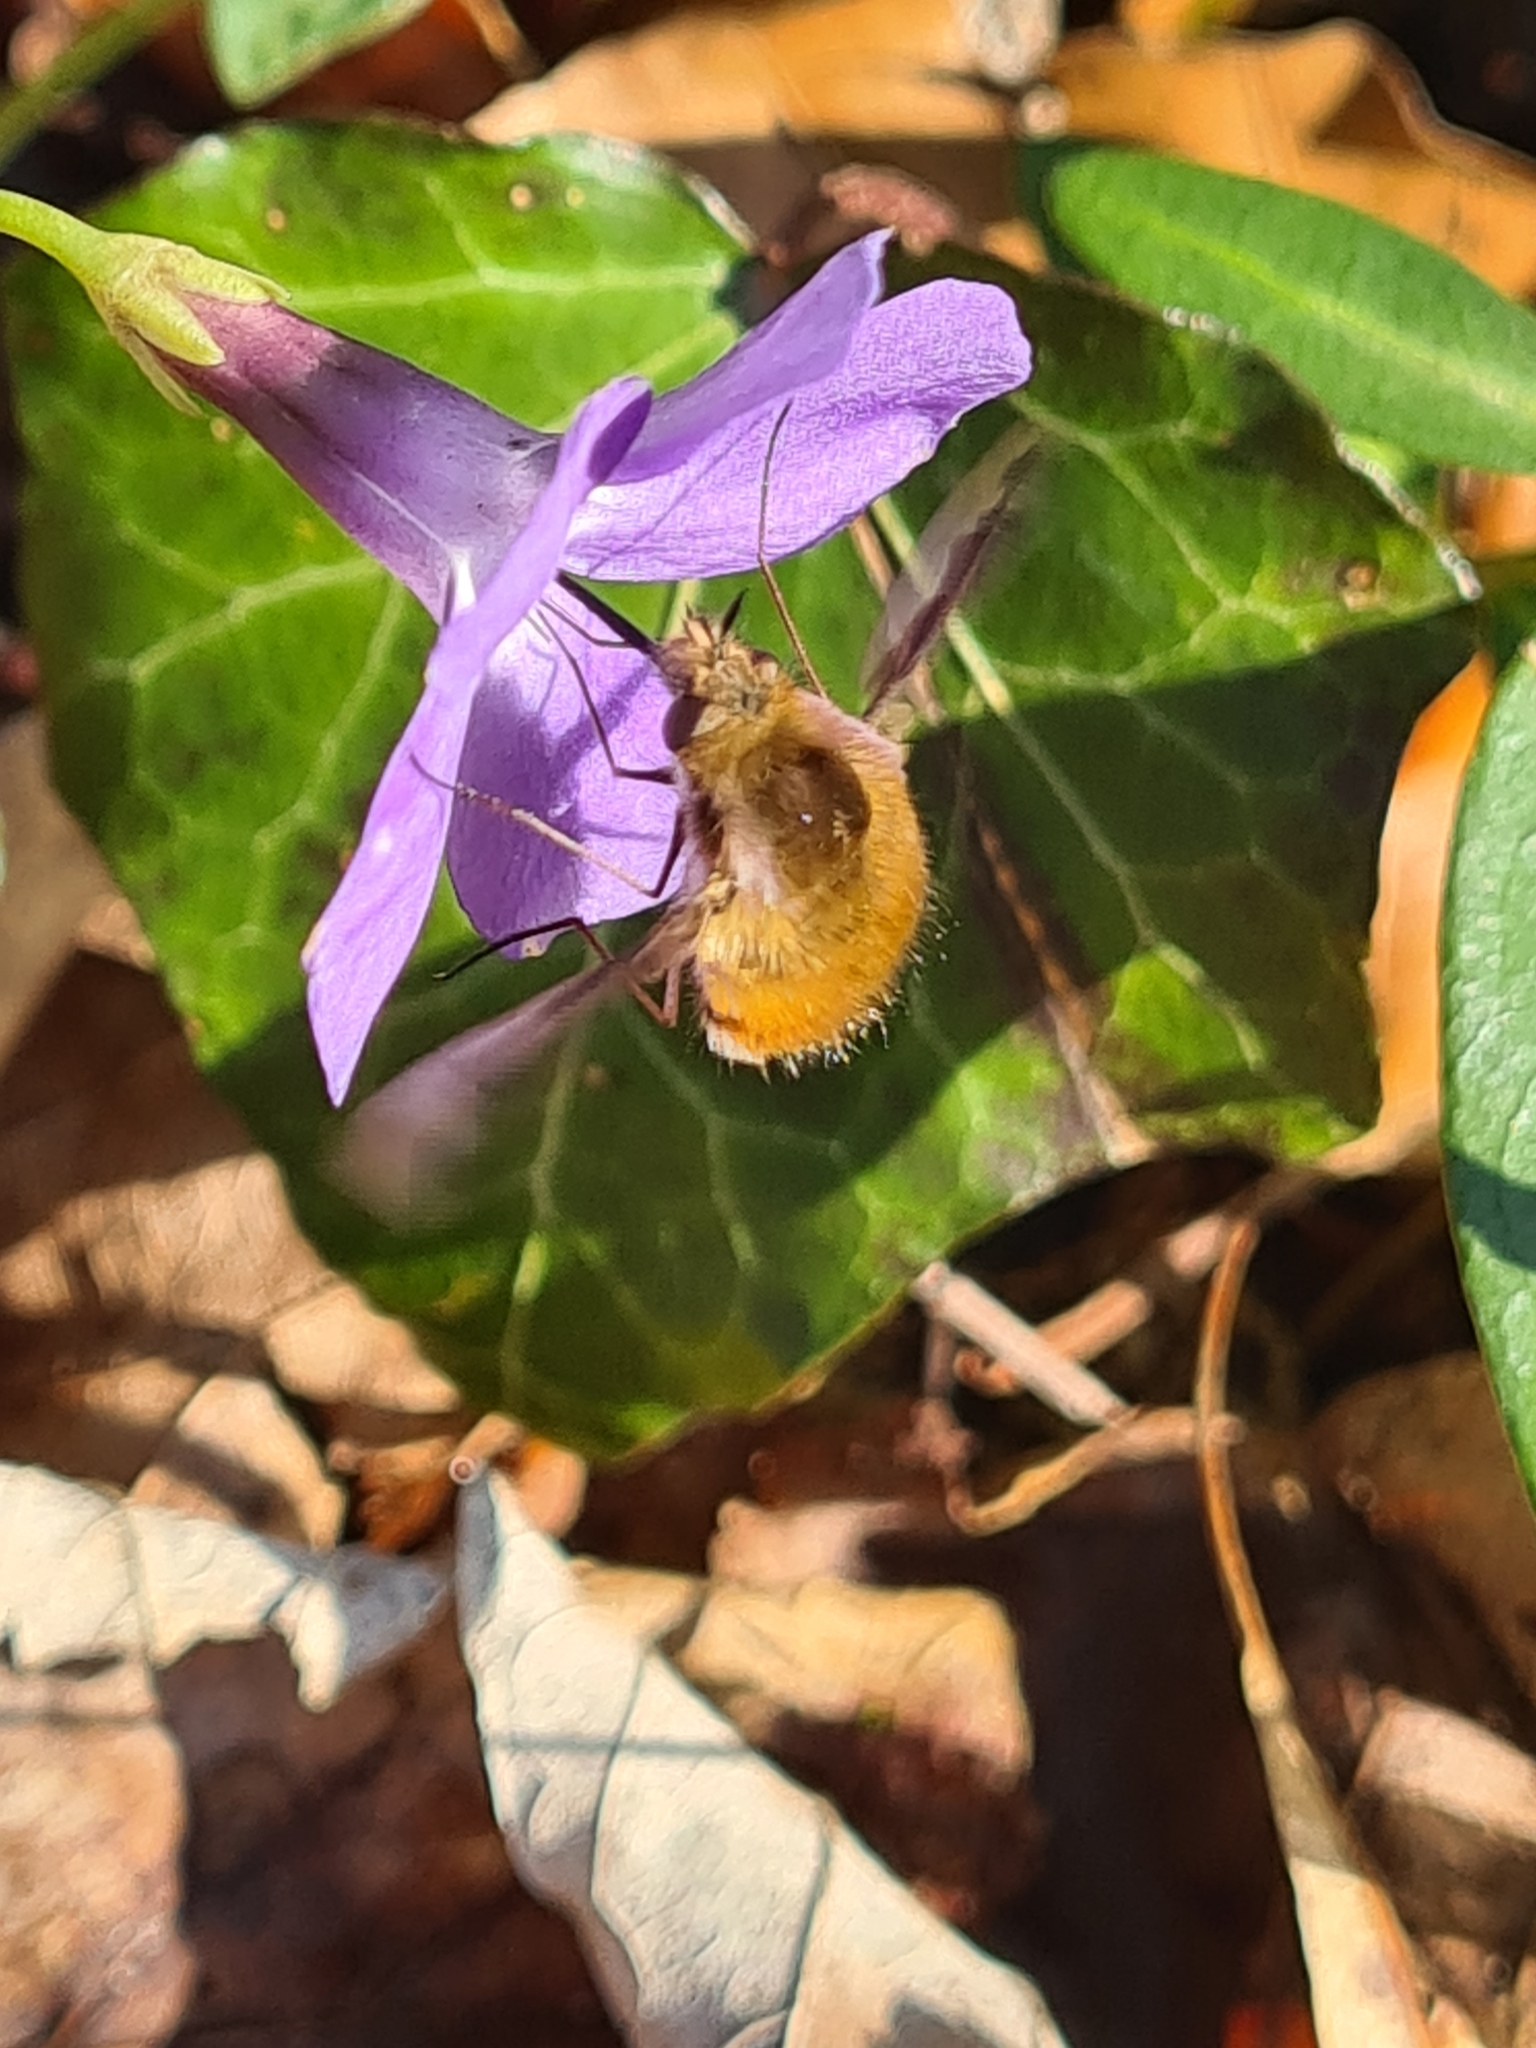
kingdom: Animalia
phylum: Arthropoda
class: Insecta
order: Diptera
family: Bombyliidae
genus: Bombylius
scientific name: Bombylius major
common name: Bee fly
